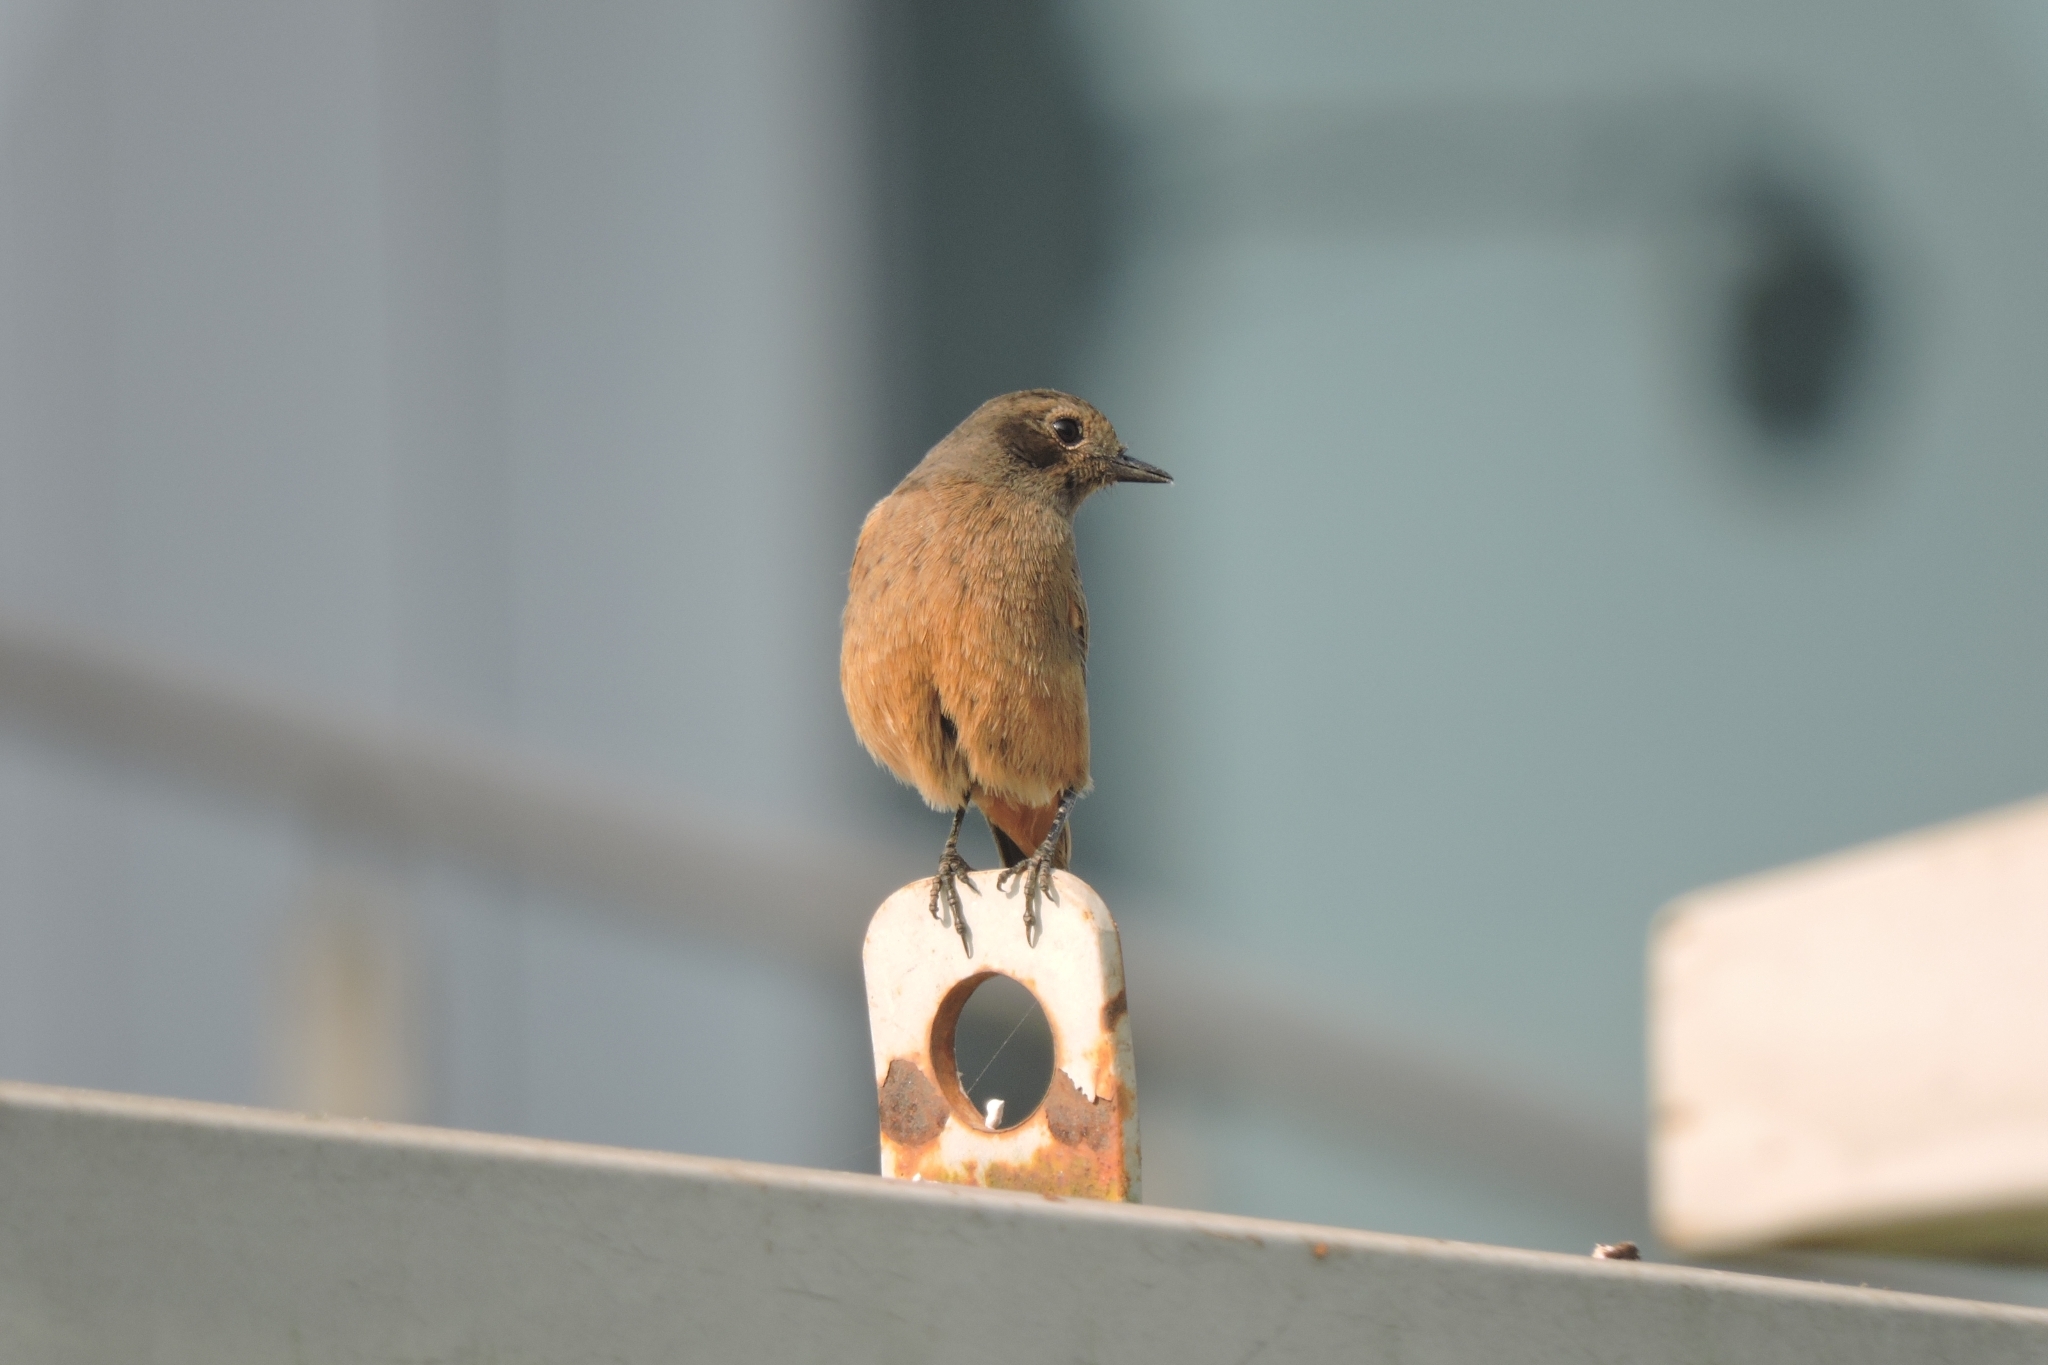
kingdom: Animalia
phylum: Chordata
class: Aves
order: Passeriformes
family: Muscicapidae
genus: Saxicola
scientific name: Saxicola caprata
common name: Pied bush chat
